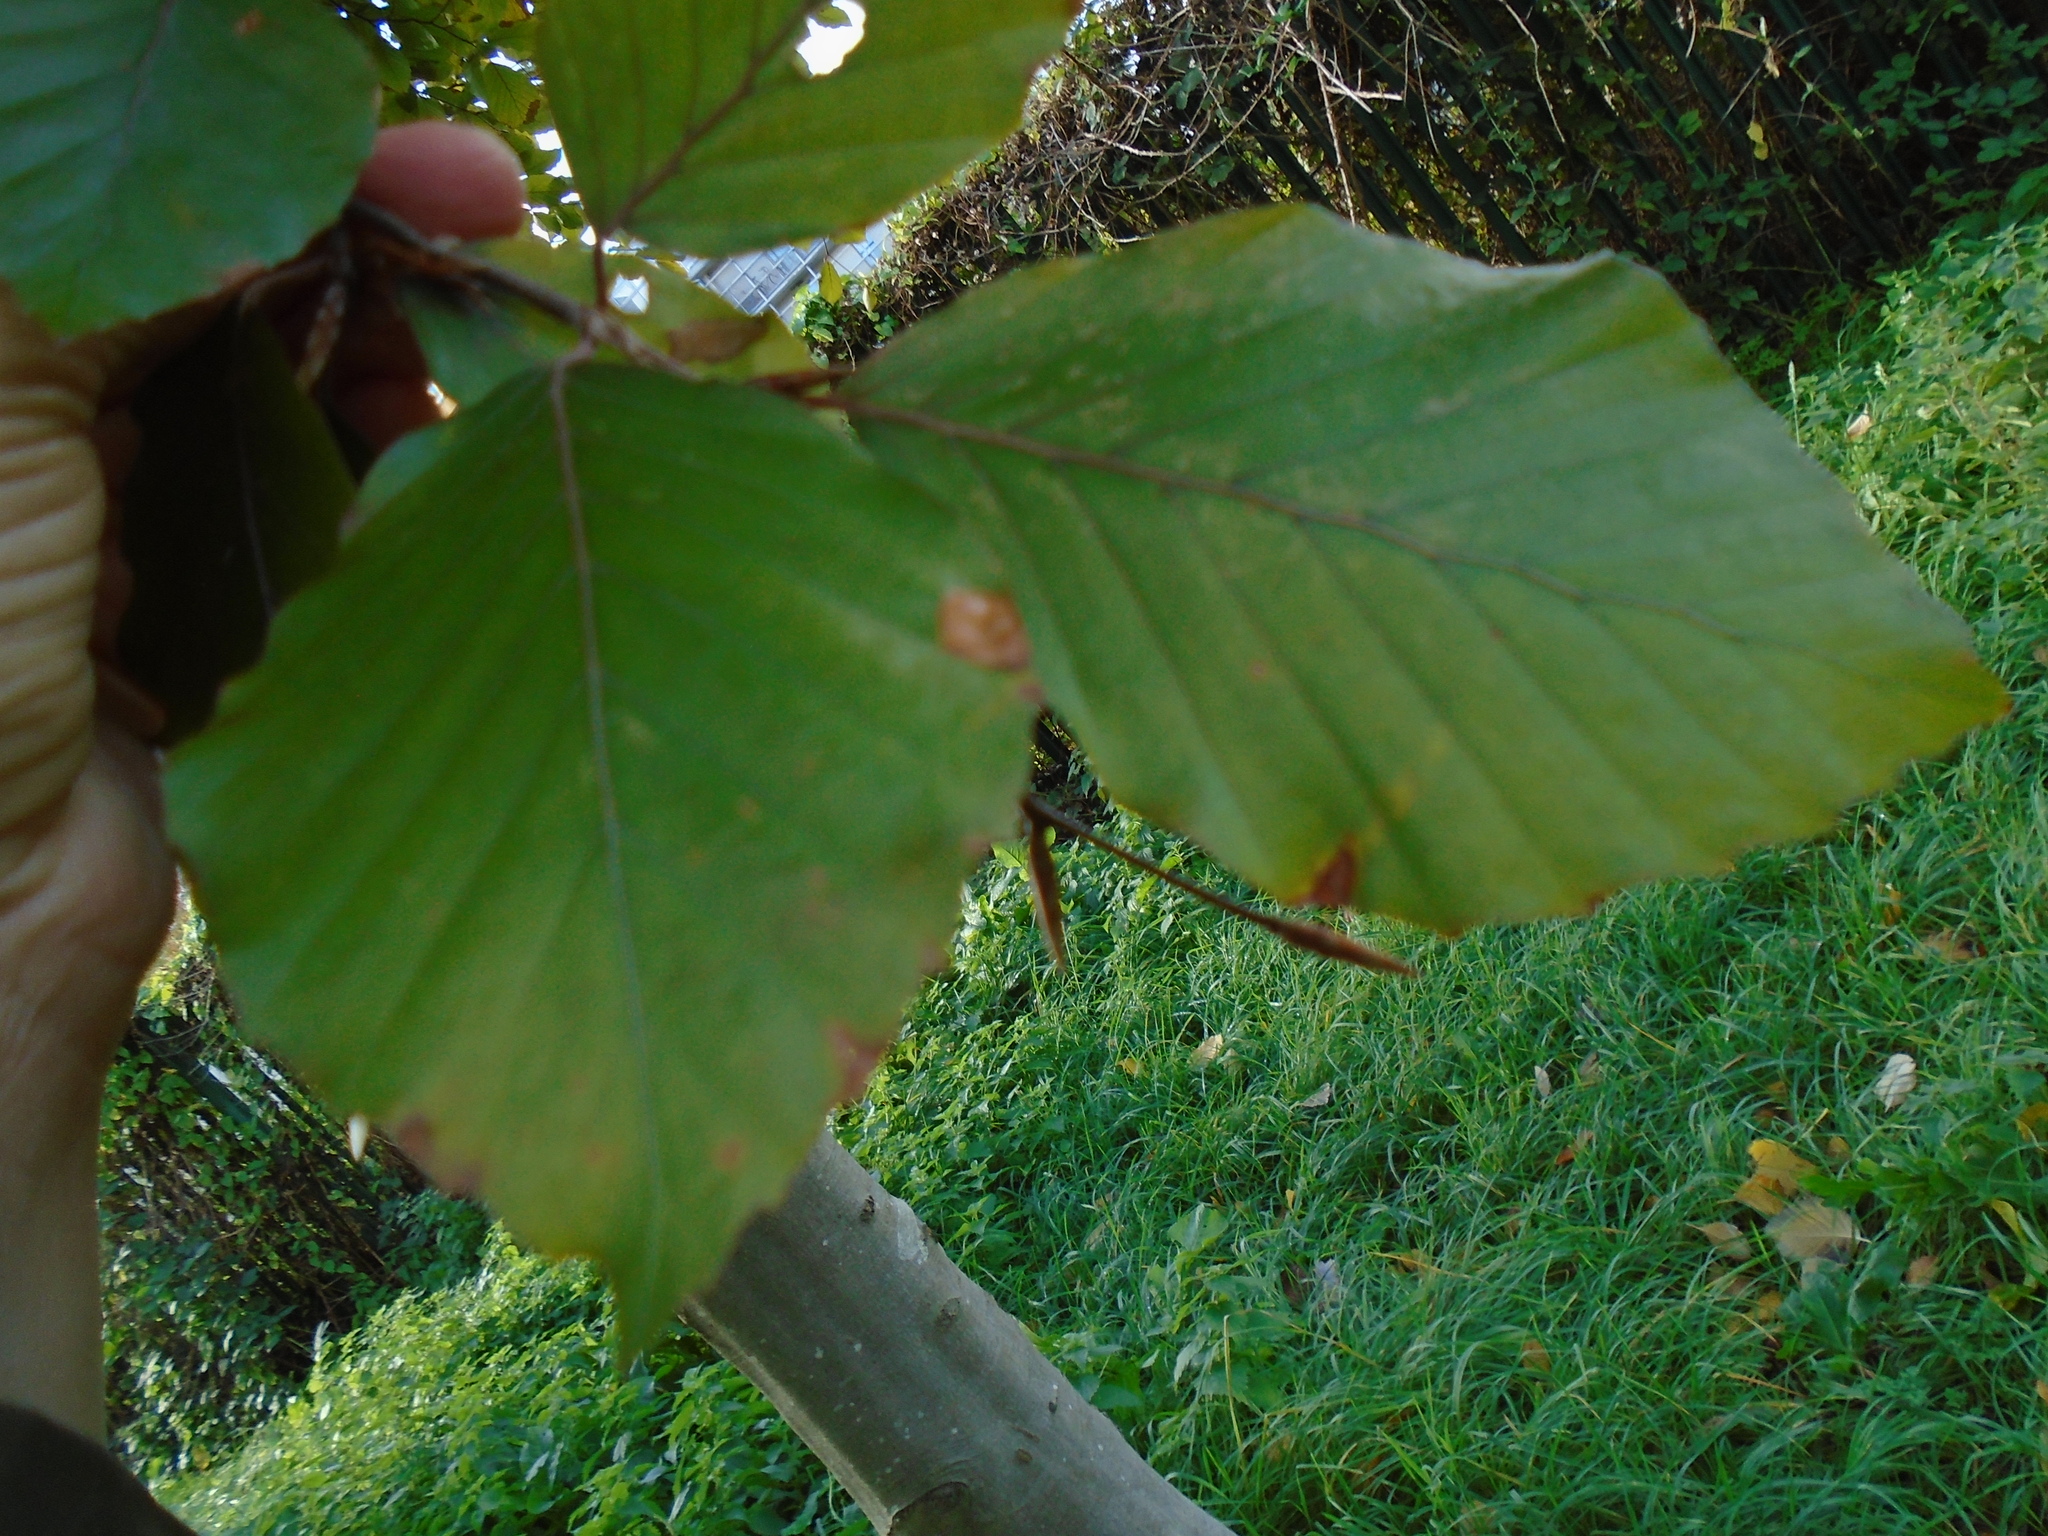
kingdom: Plantae
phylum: Tracheophyta
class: Magnoliopsida
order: Fagales
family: Fagaceae
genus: Fagus
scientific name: Fagus sylvatica
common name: Beech
